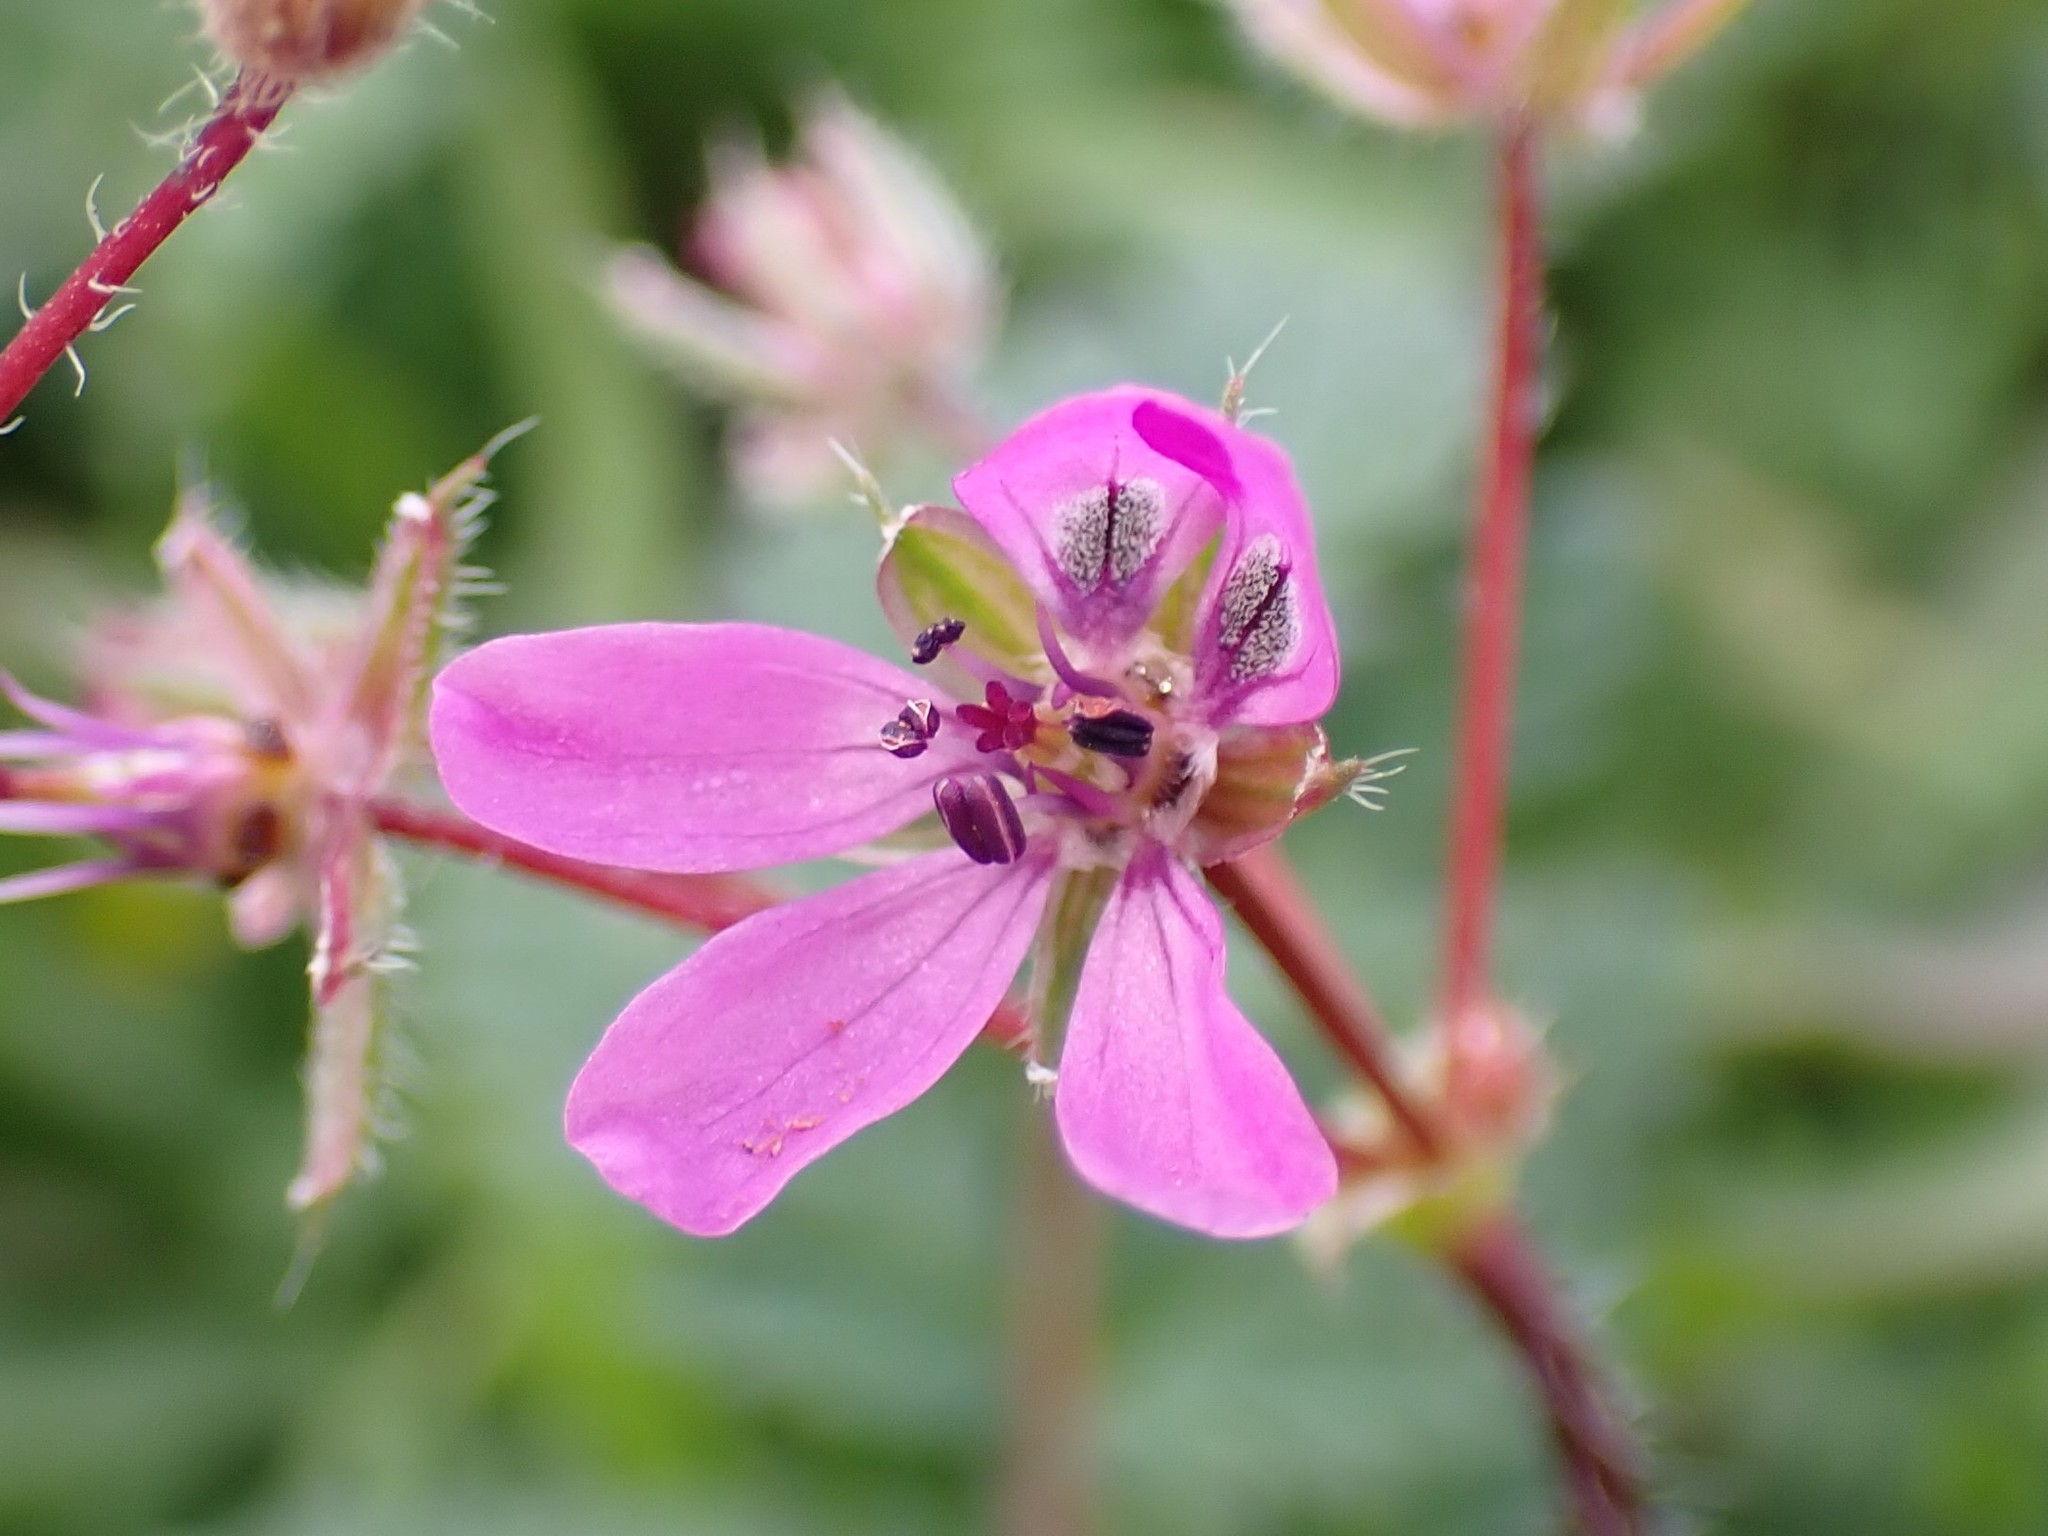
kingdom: Plantae
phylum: Tracheophyta
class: Magnoliopsida
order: Geraniales
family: Geraniaceae
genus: Erodium
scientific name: Erodium cicutarium
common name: Common stork's-bill
